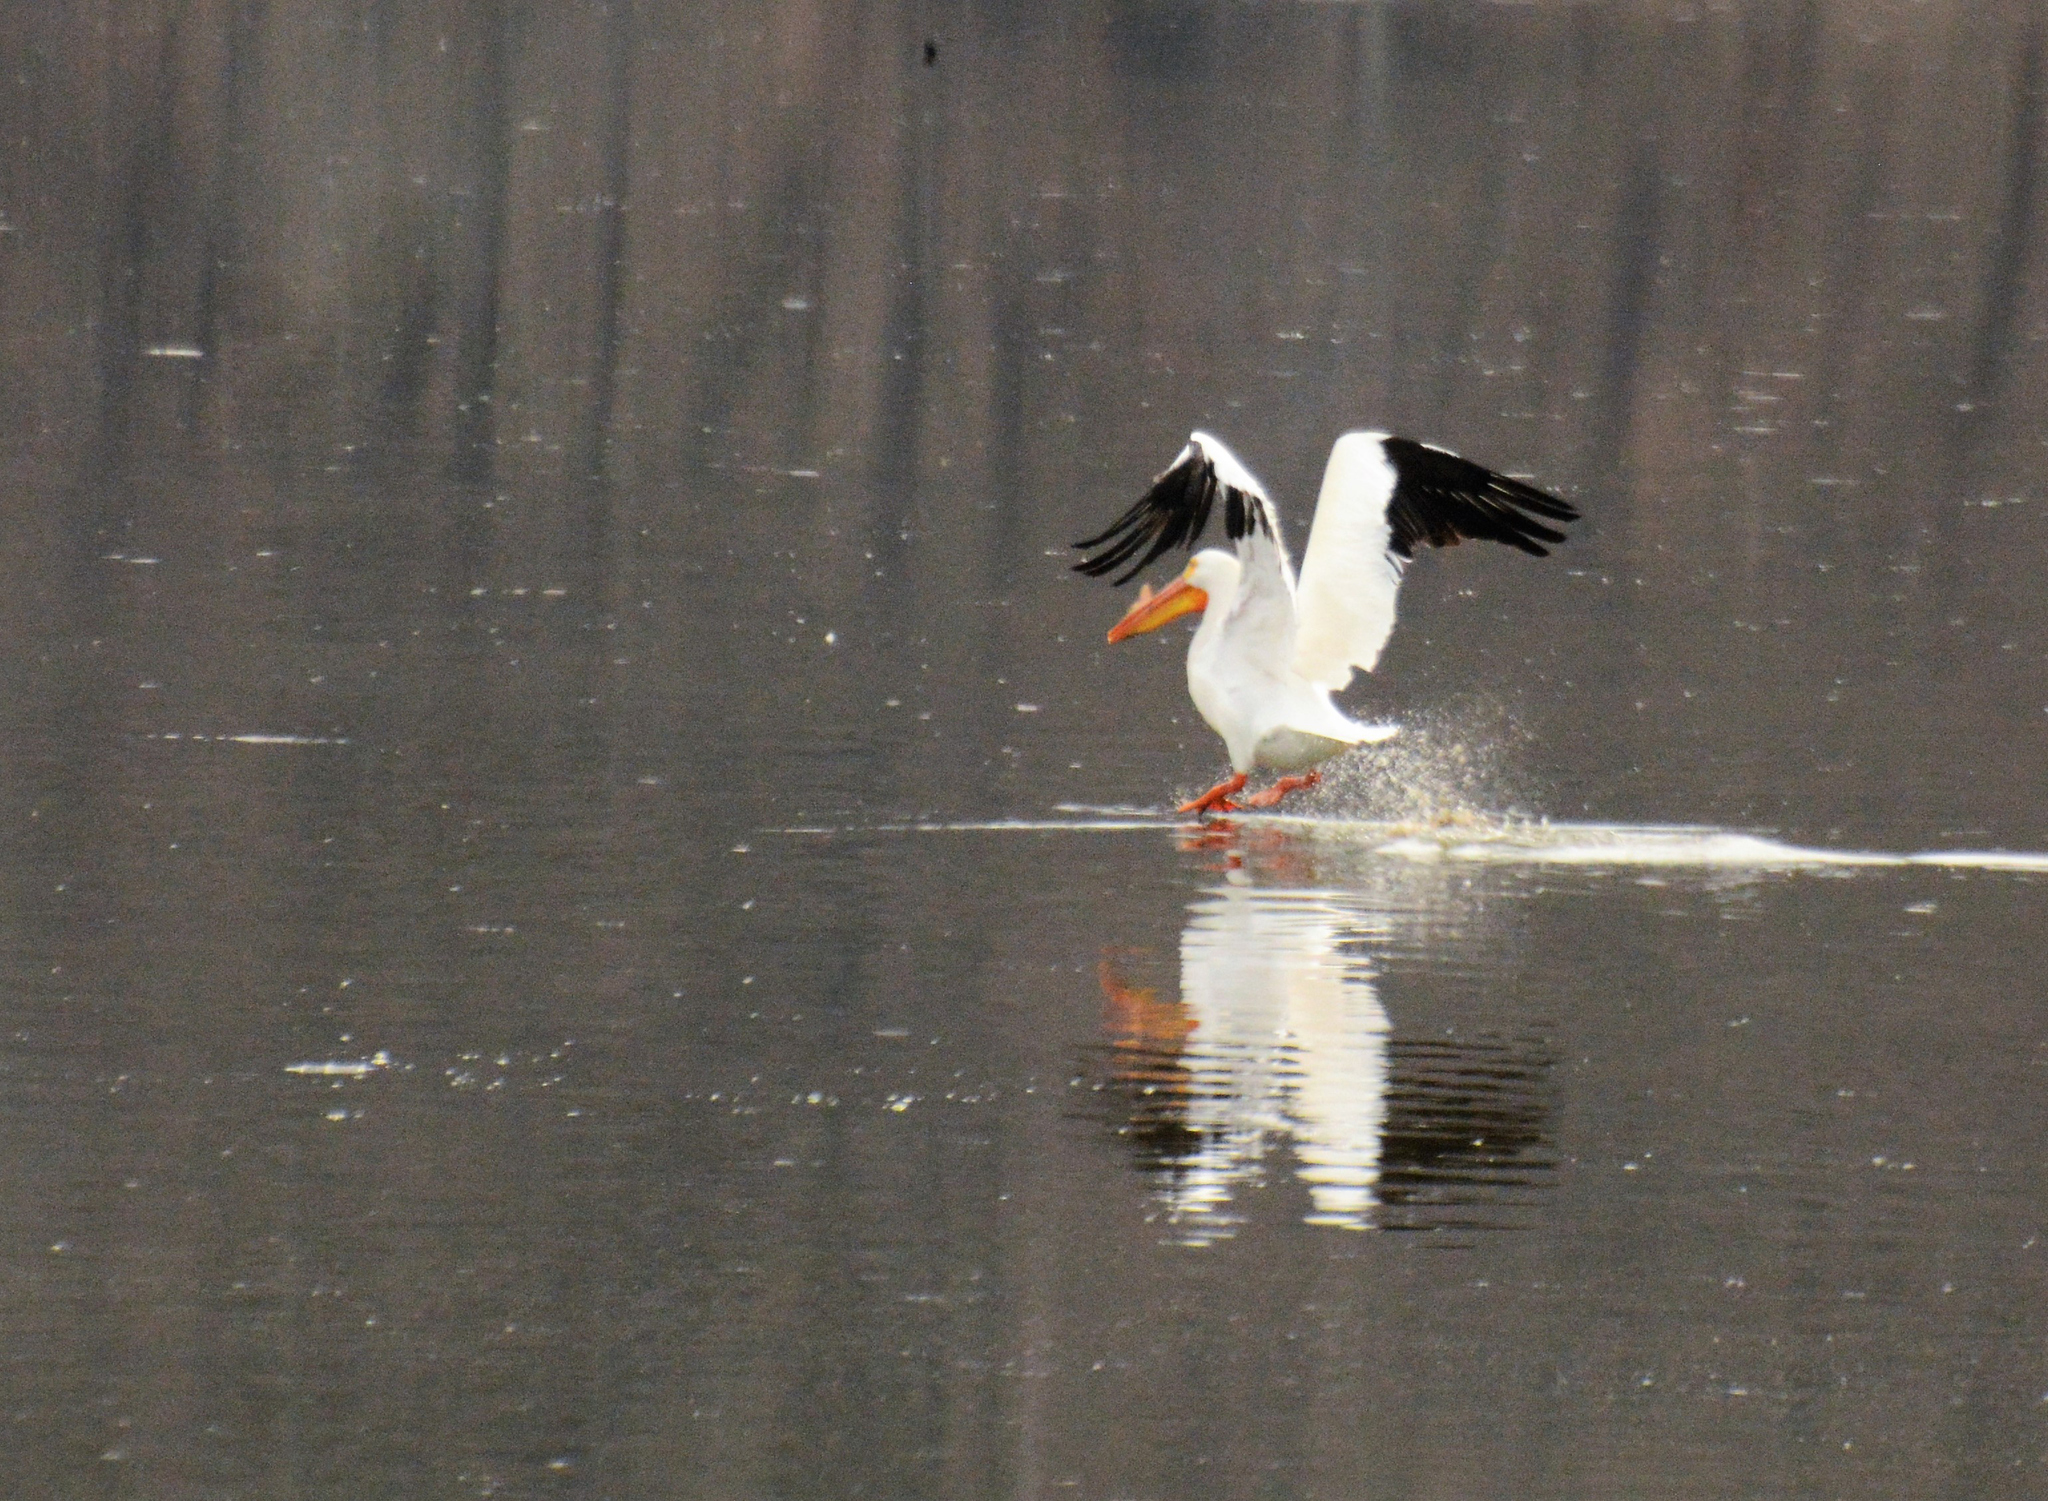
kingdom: Animalia
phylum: Chordata
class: Aves
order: Pelecaniformes
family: Pelecanidae
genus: Pelecanus
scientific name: Pelecanus erythrorhynchos
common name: American white pelican
